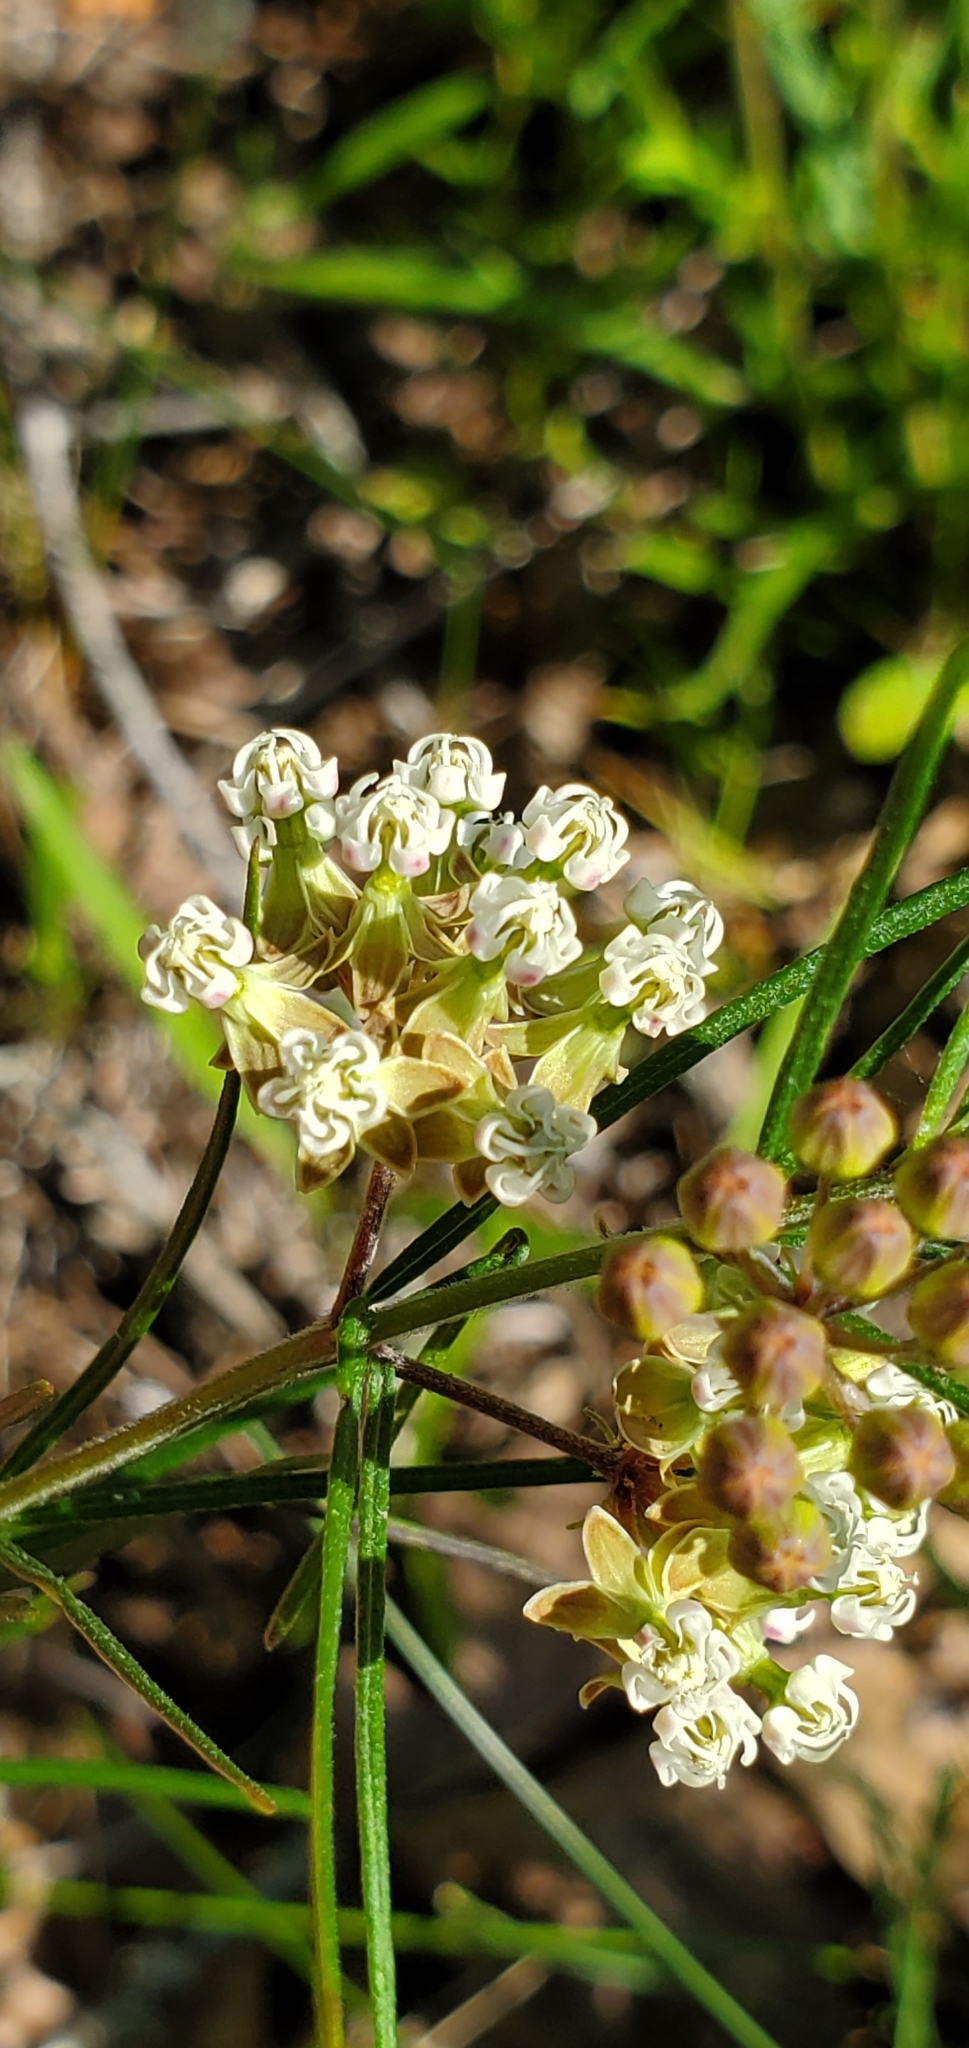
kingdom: Plantae
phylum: Tracheophyta
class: Magnoliopsida
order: Gentianales
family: Apocynaceae
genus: Asclepias
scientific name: Asclepias verticillata
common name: Eastern whorled milkweed
